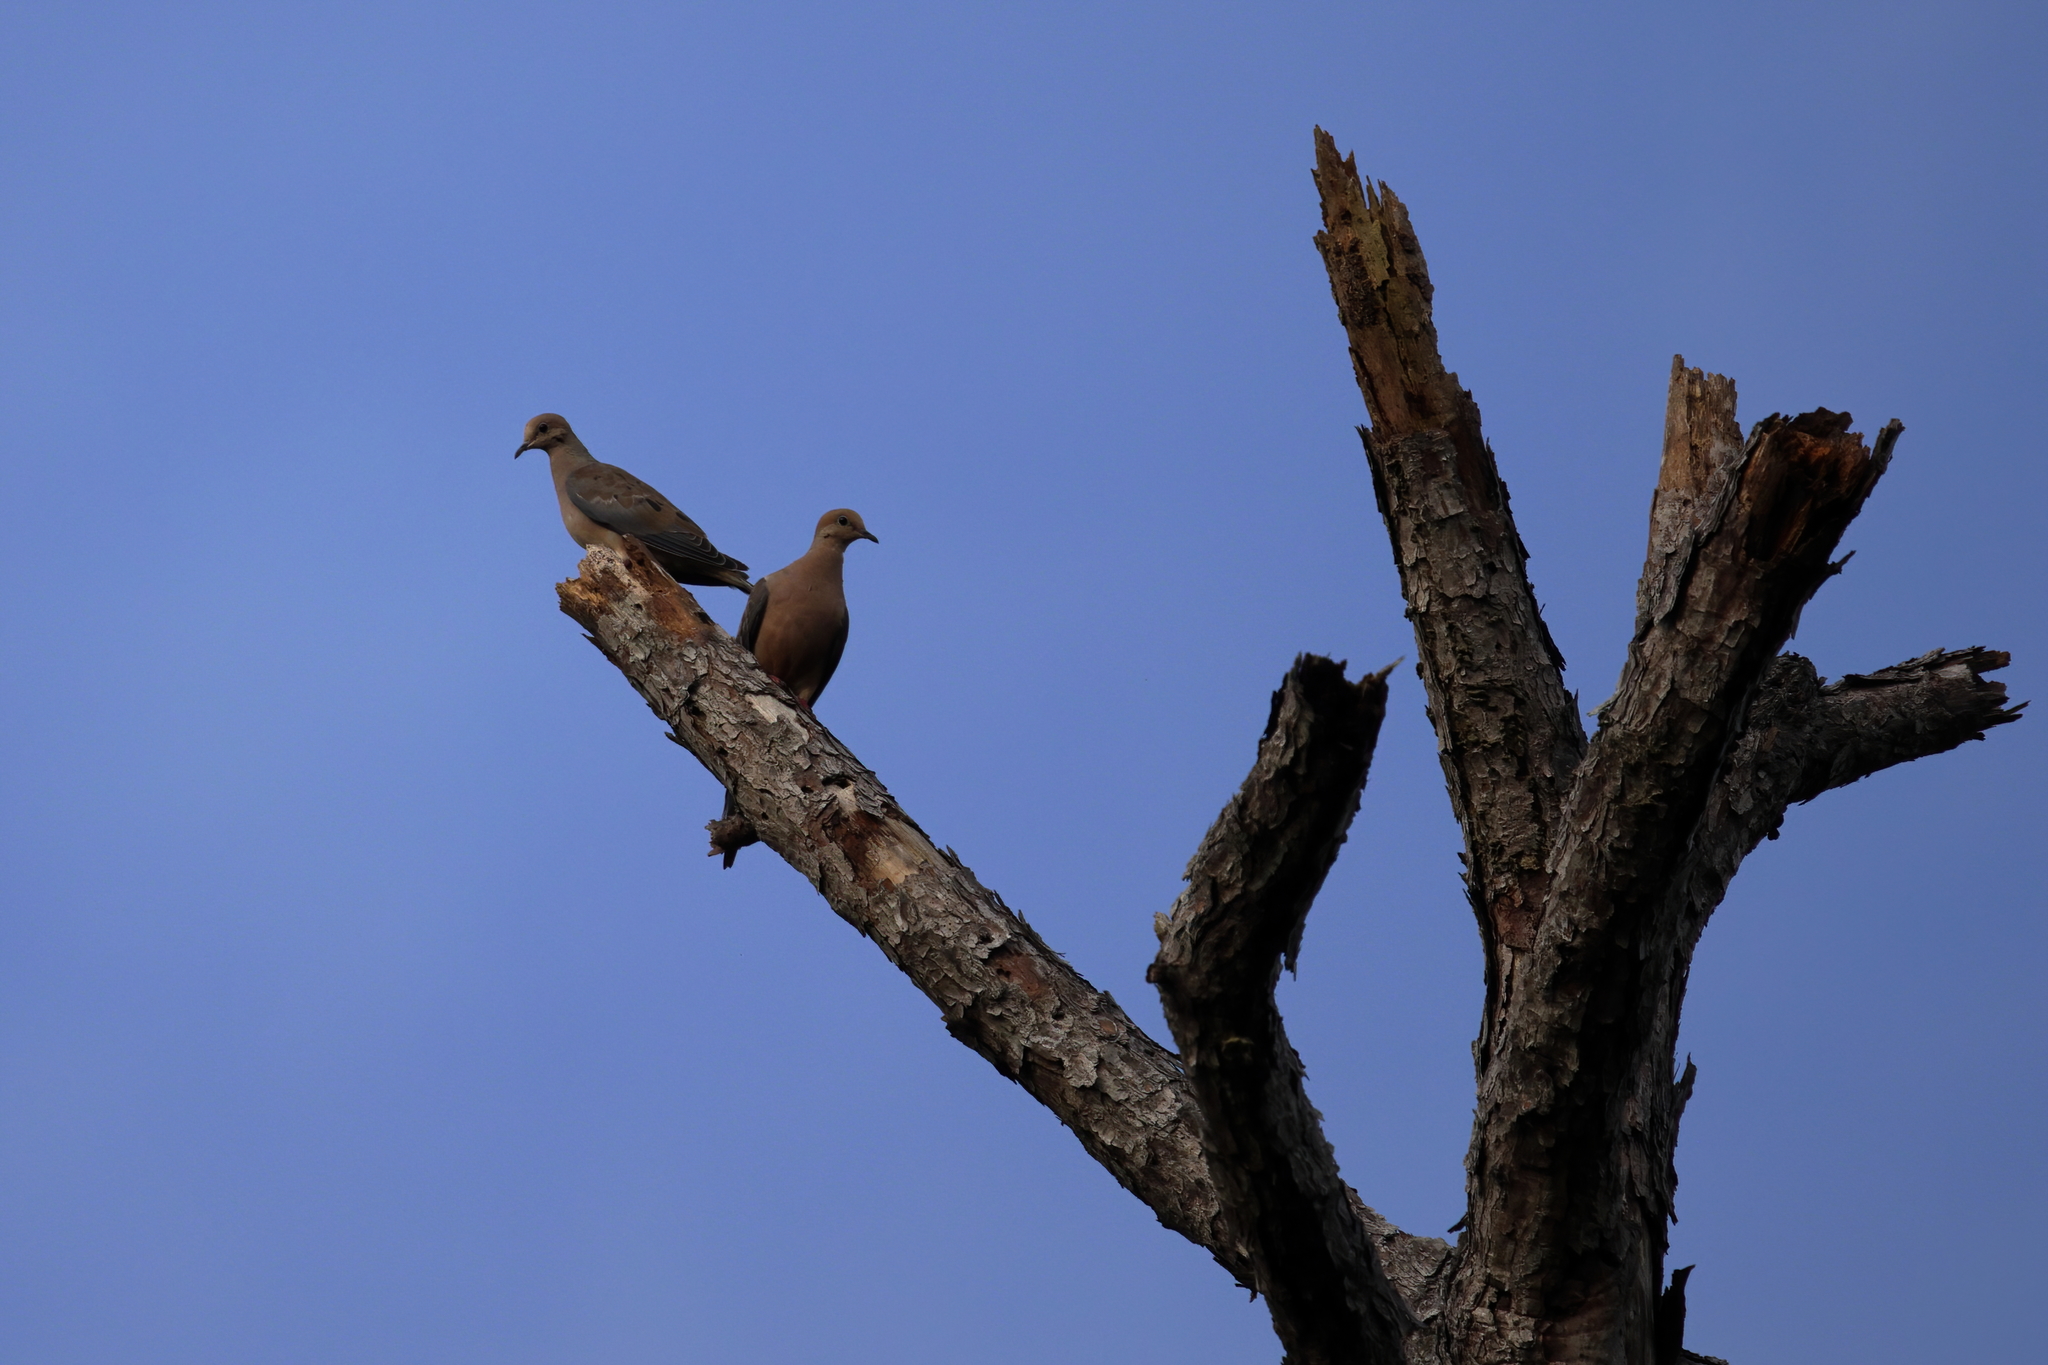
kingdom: Animalia
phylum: Chordata
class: Aves
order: Columbiformes
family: Columbidae
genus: Zenaida
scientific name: Zenaida macroura
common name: Mourning dove
